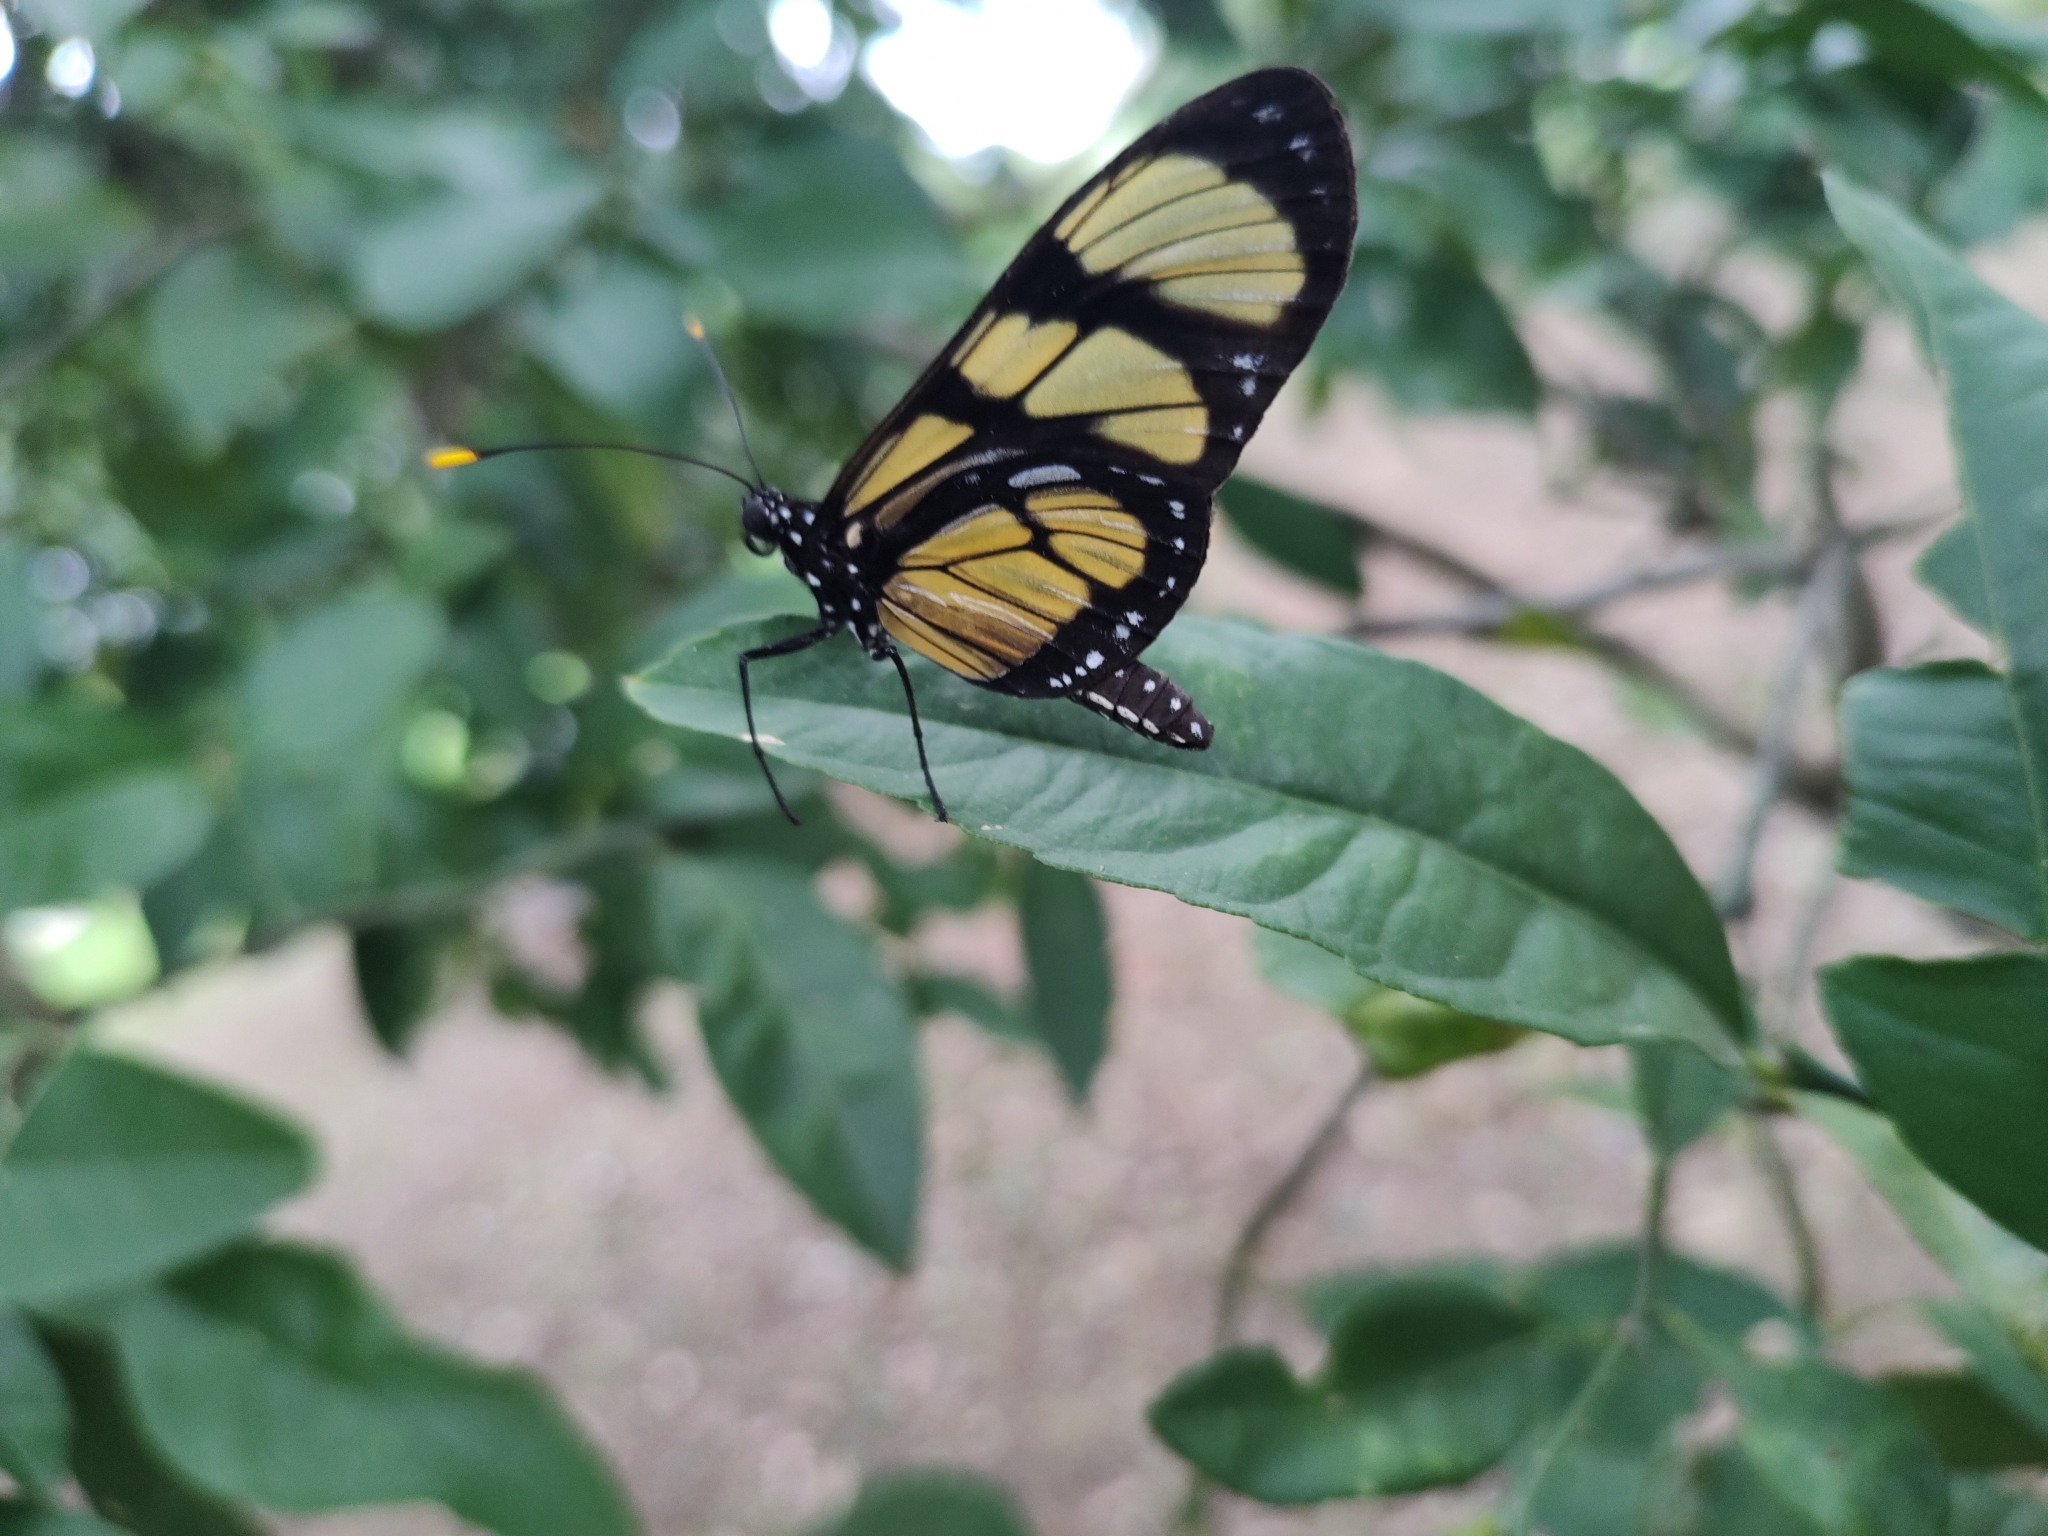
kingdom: Animalia
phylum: Arthropoda
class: Insecta
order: Lepidoptera
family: Nymphalidae
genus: Methona
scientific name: Methona themisto
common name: Themisto amberwing
